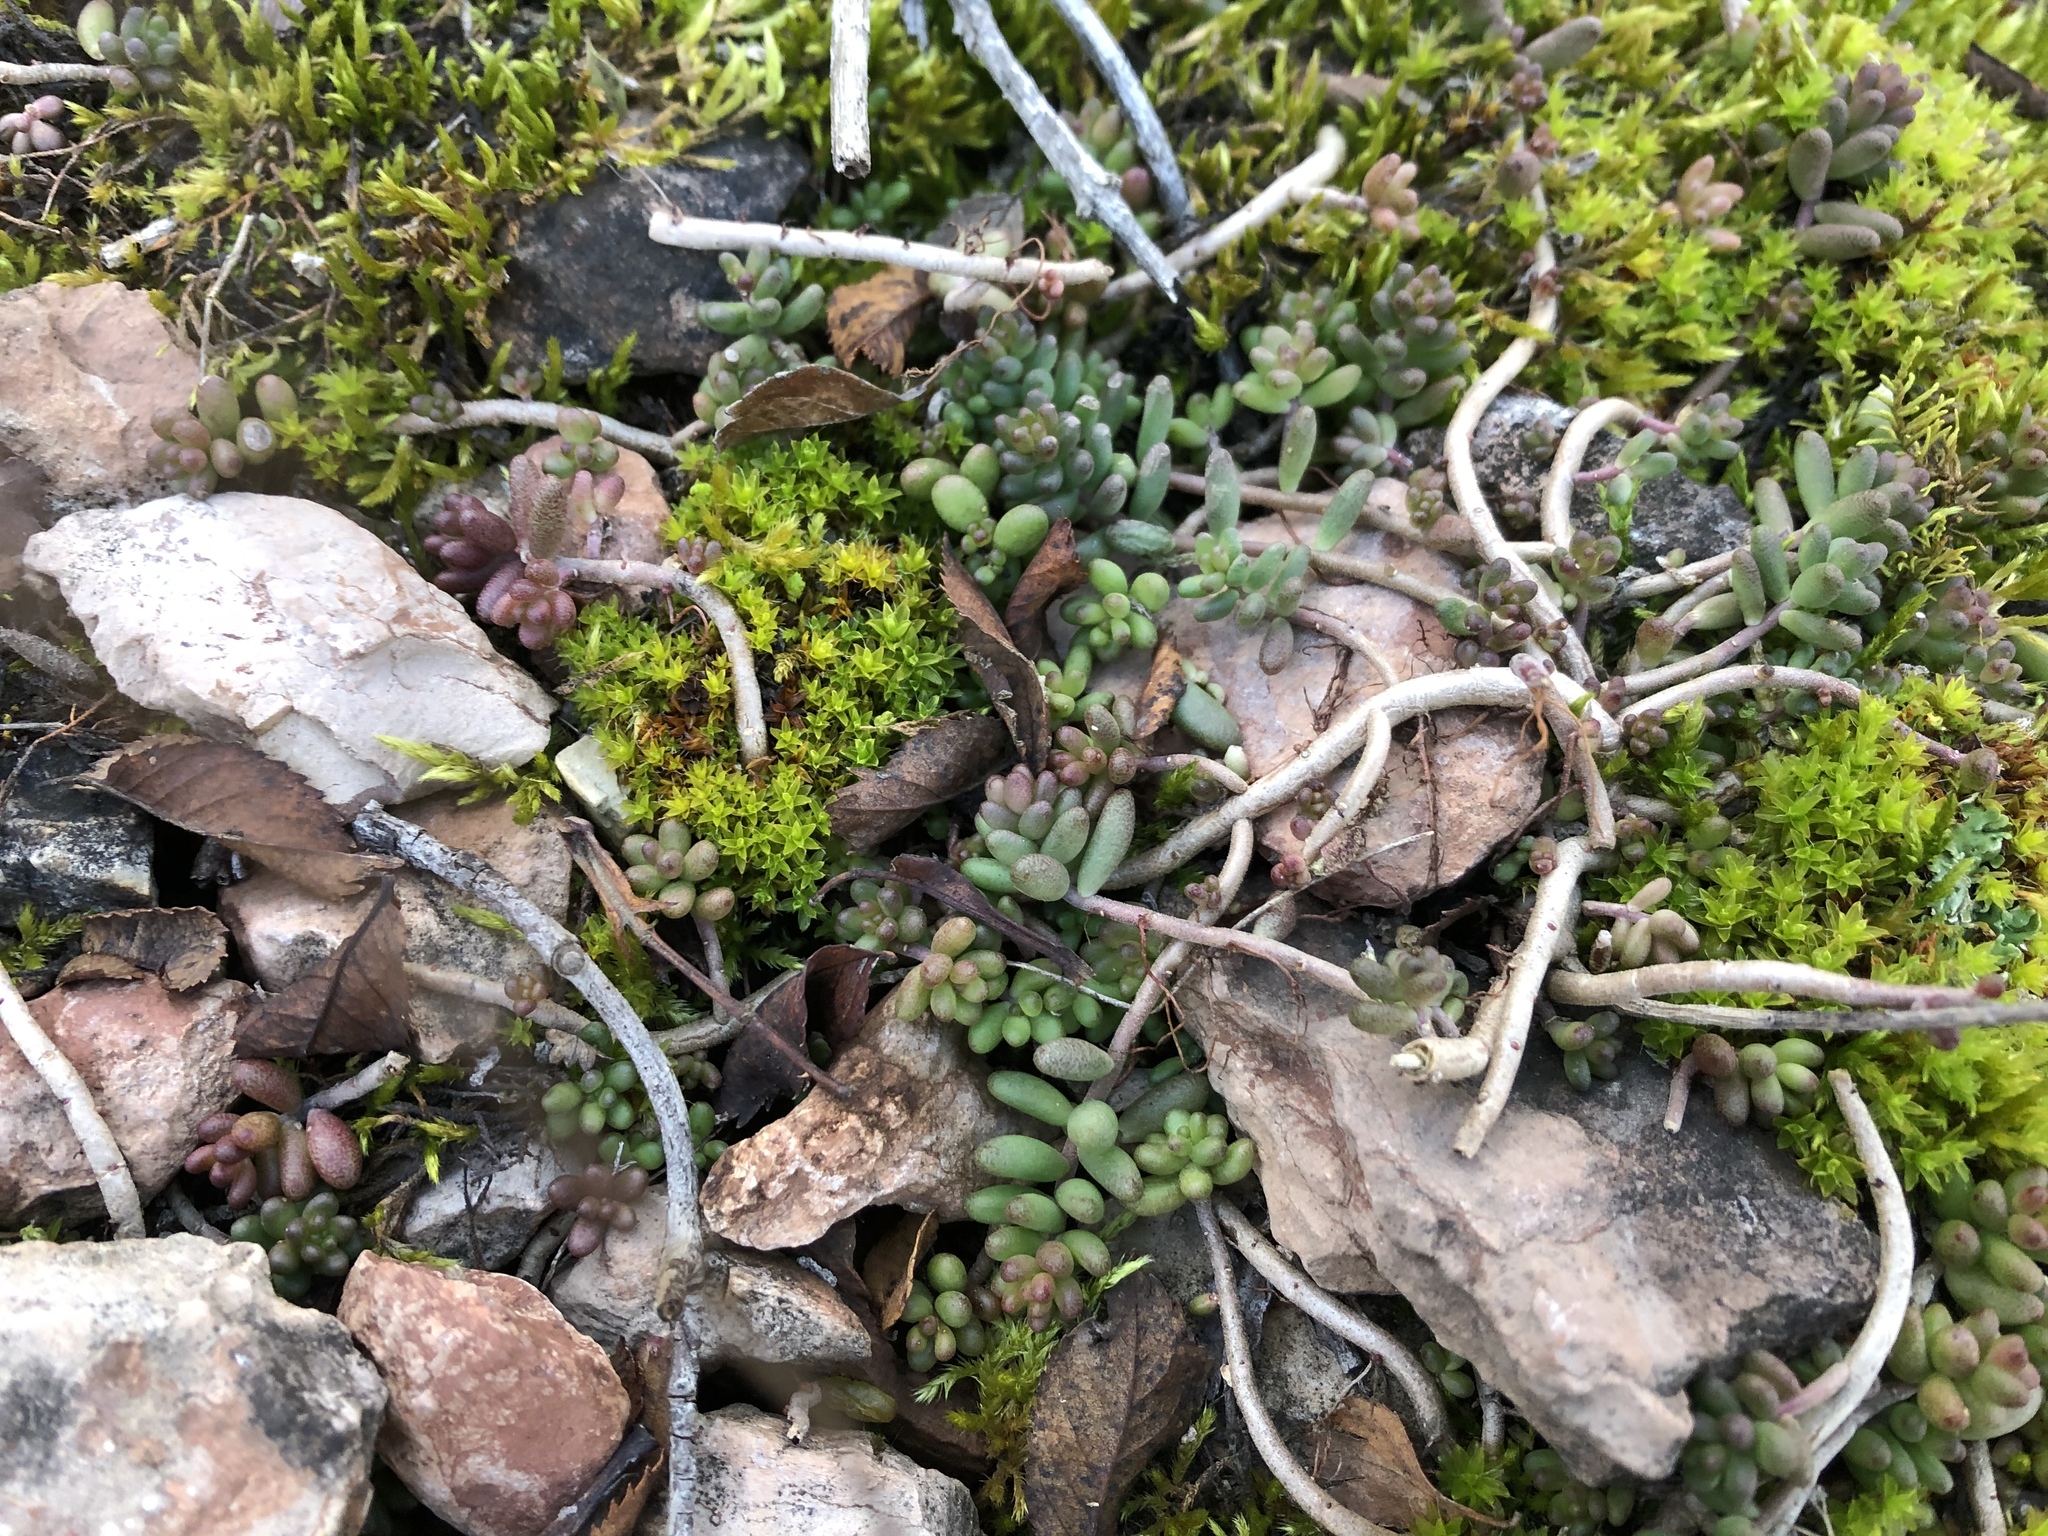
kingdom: Plantae
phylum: Tracheophyta
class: Magnoliopsida
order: Saxifragales
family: Crassulaceae
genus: Sedum
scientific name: Sedum album
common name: White stonecrop
